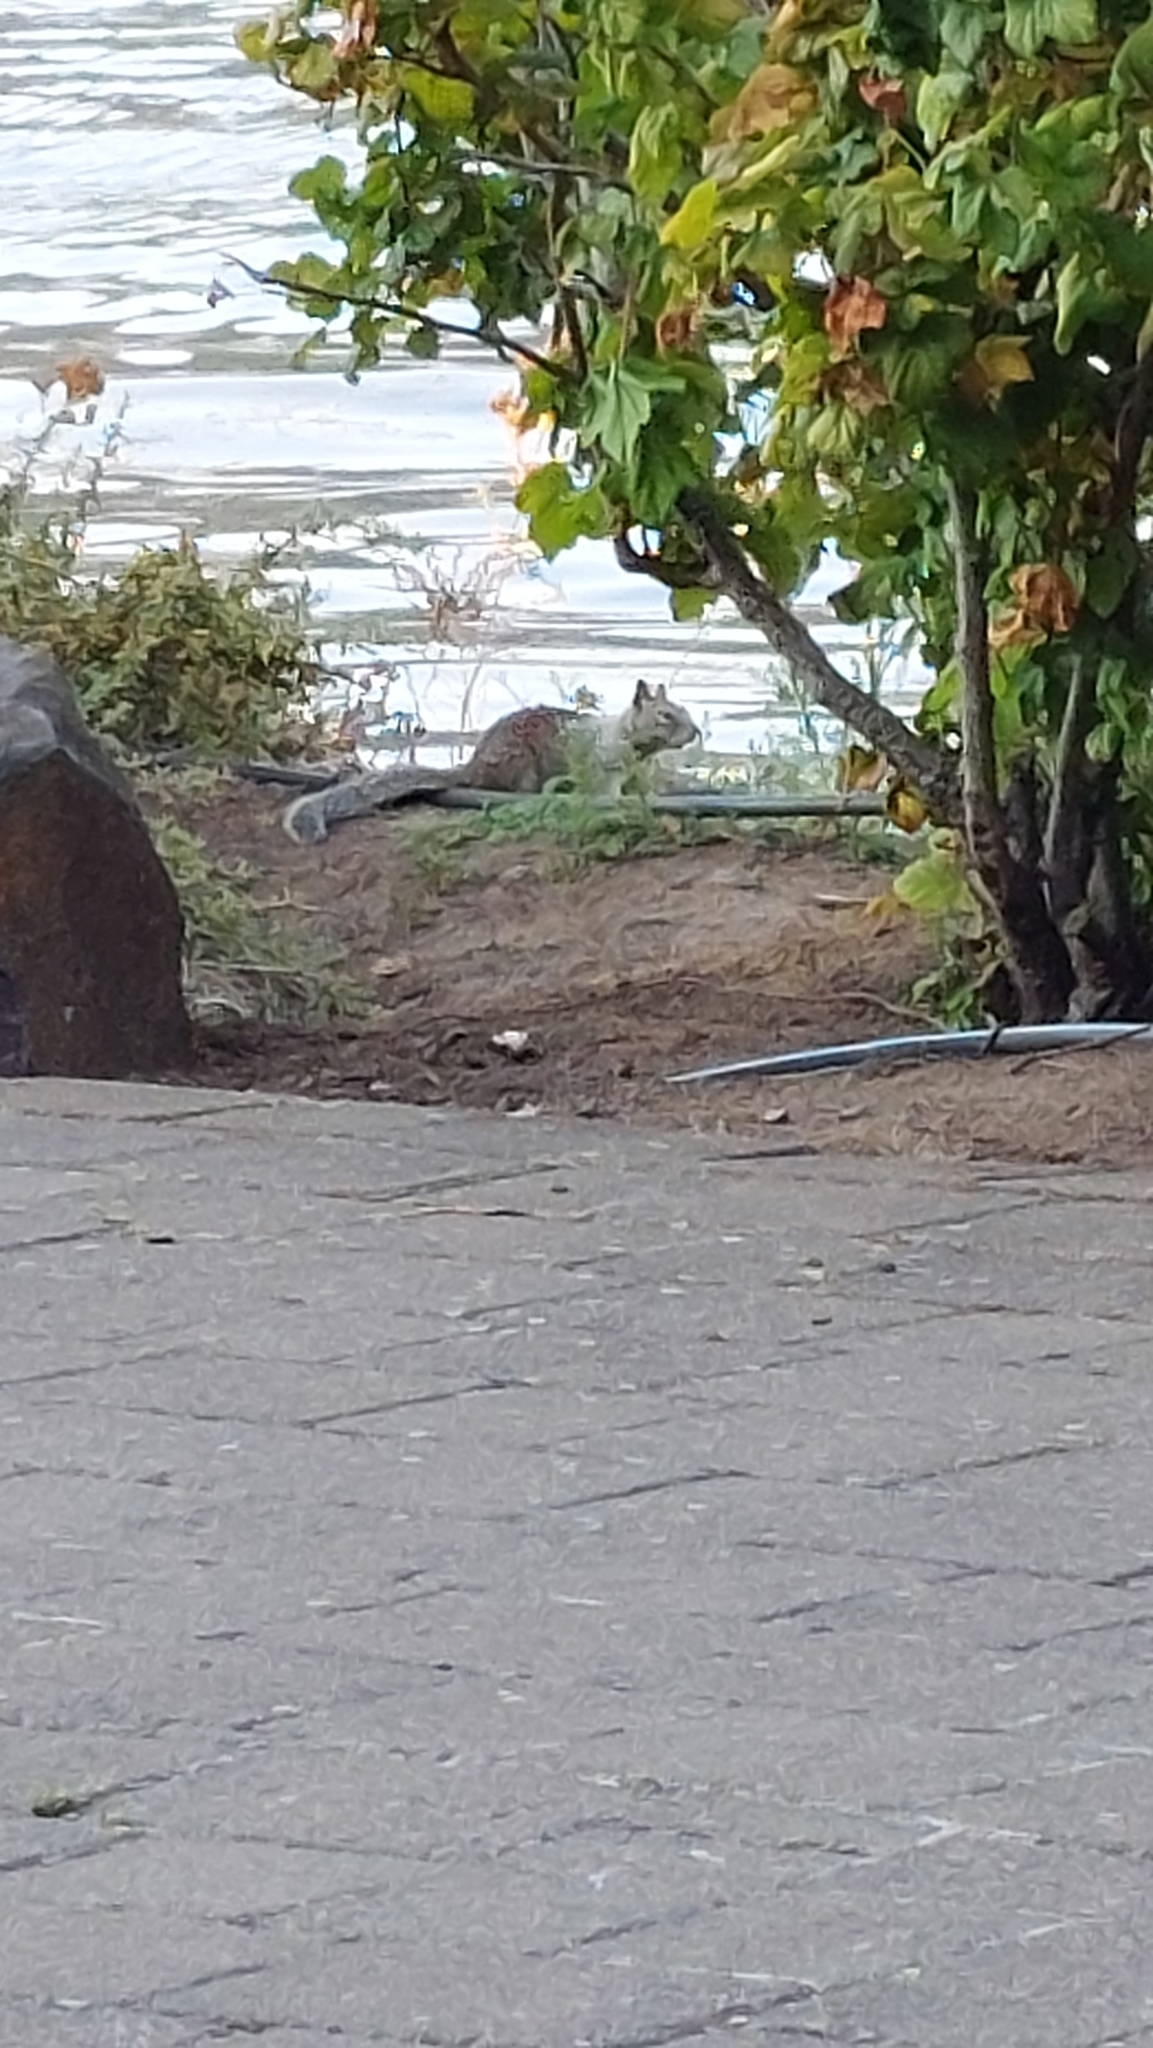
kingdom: Animalia
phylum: Chordata
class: Mammalia
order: Rodentia
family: Sciuridae
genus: Otospermophilus
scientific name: Otospermophilus beecheyi
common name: California ground squirrel
